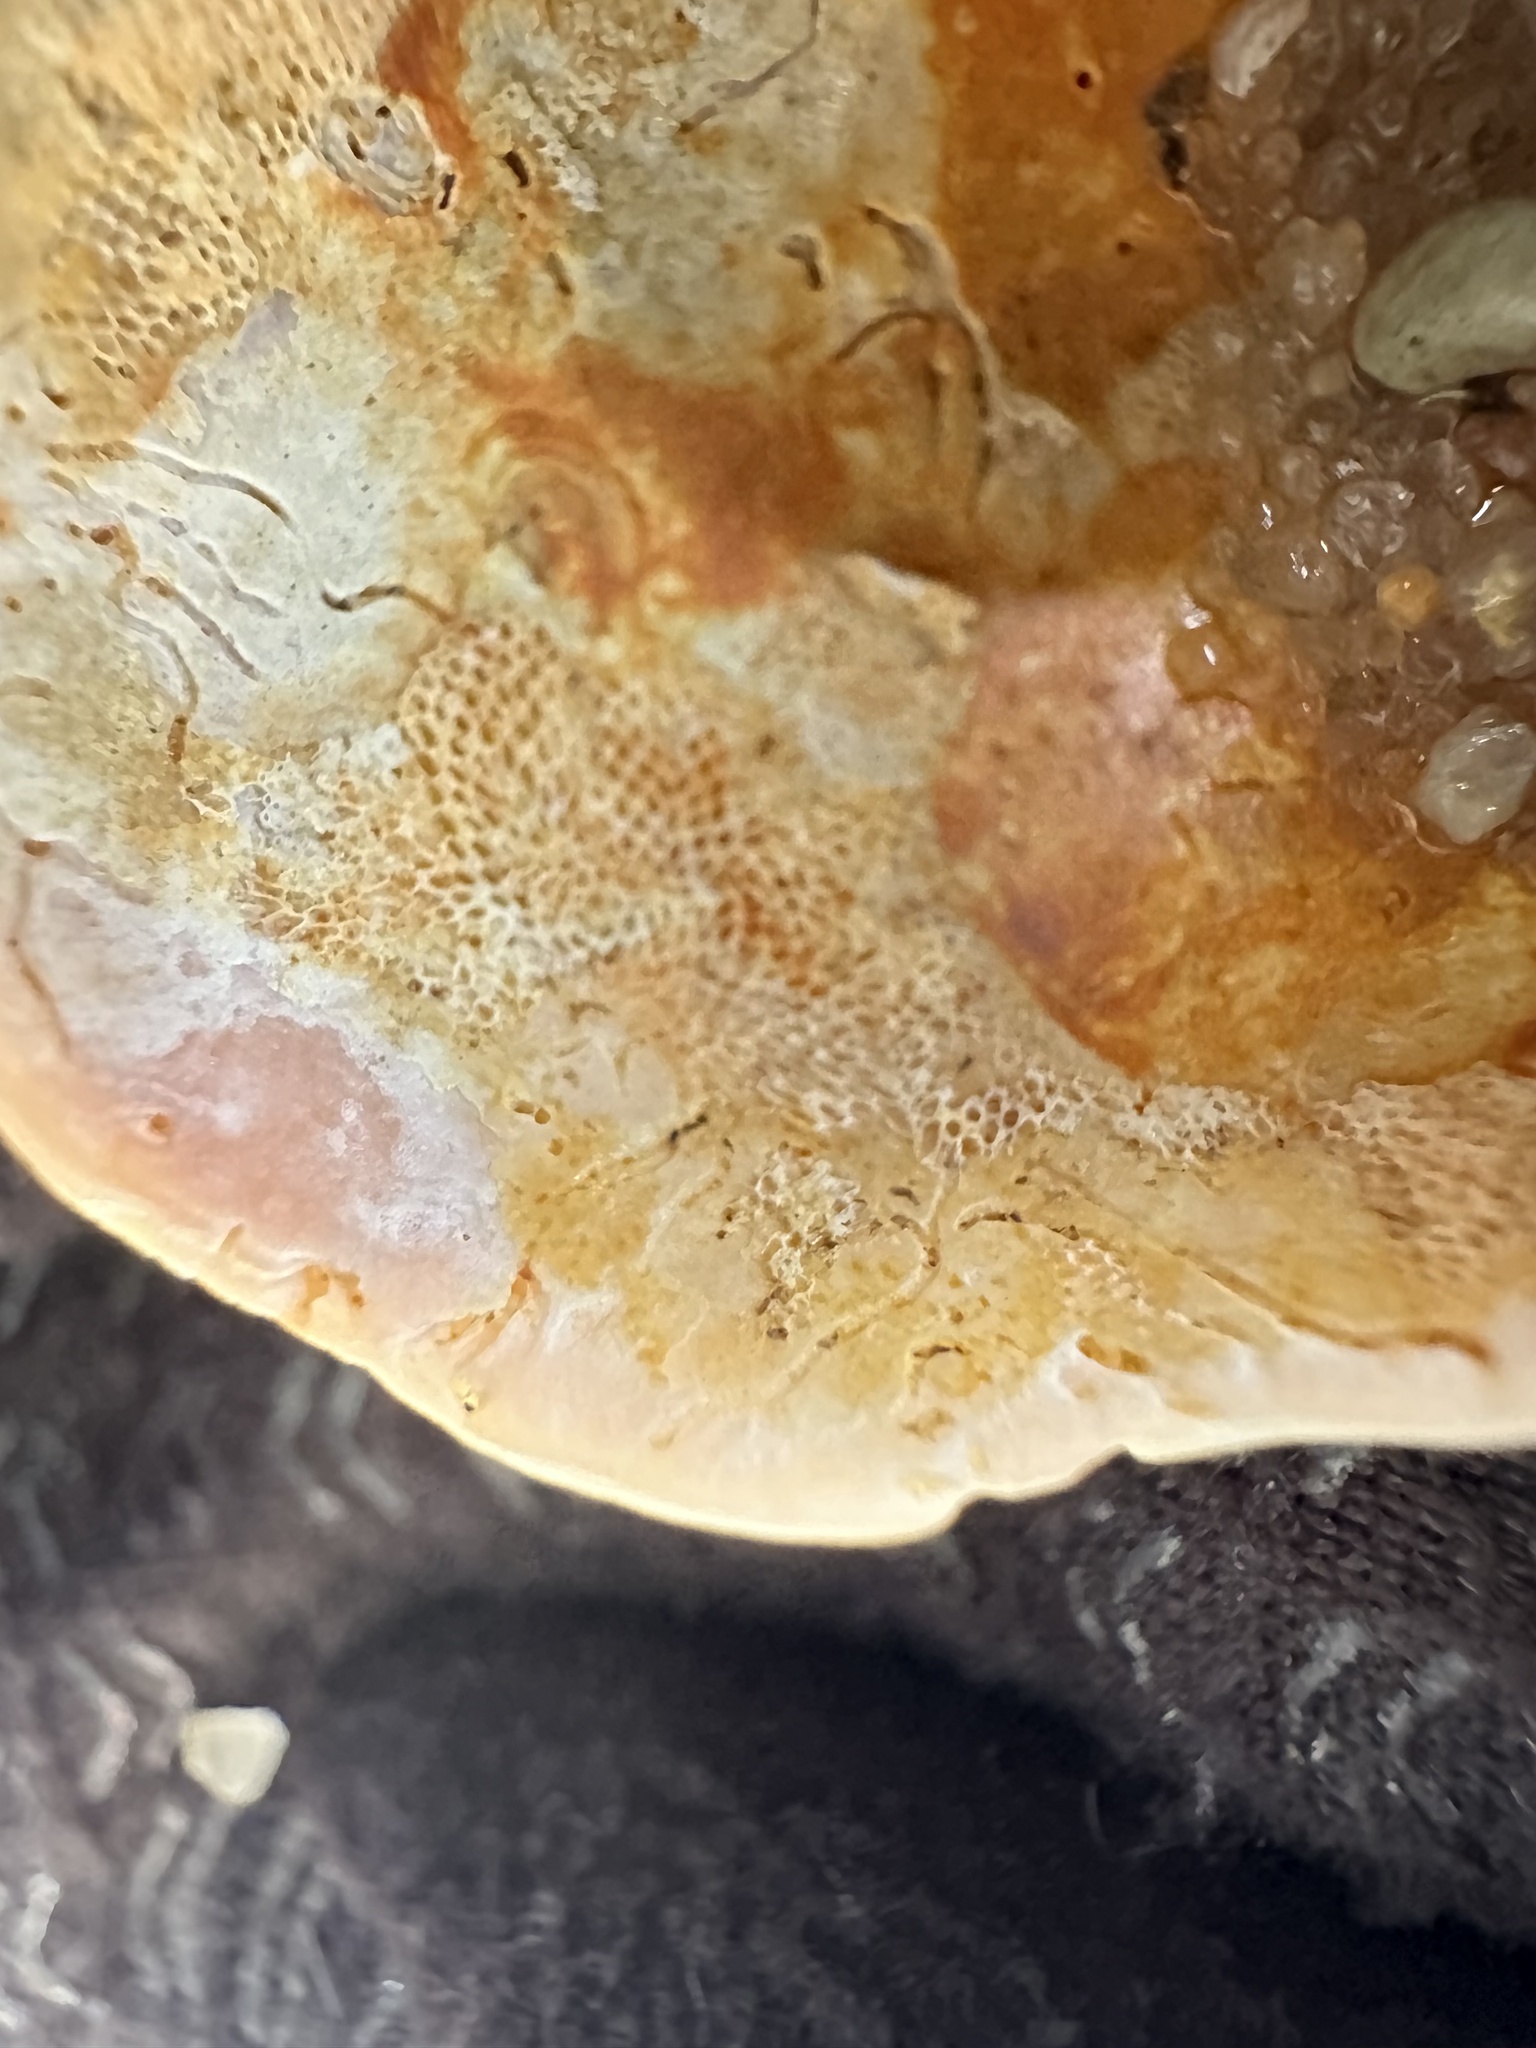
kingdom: Animalia
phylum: Mollusca
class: Gastropoda
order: Littorinimorpha
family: Calyptraeidae
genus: Crepidula
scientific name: Crepidula fornicata
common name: Slipper limpet
